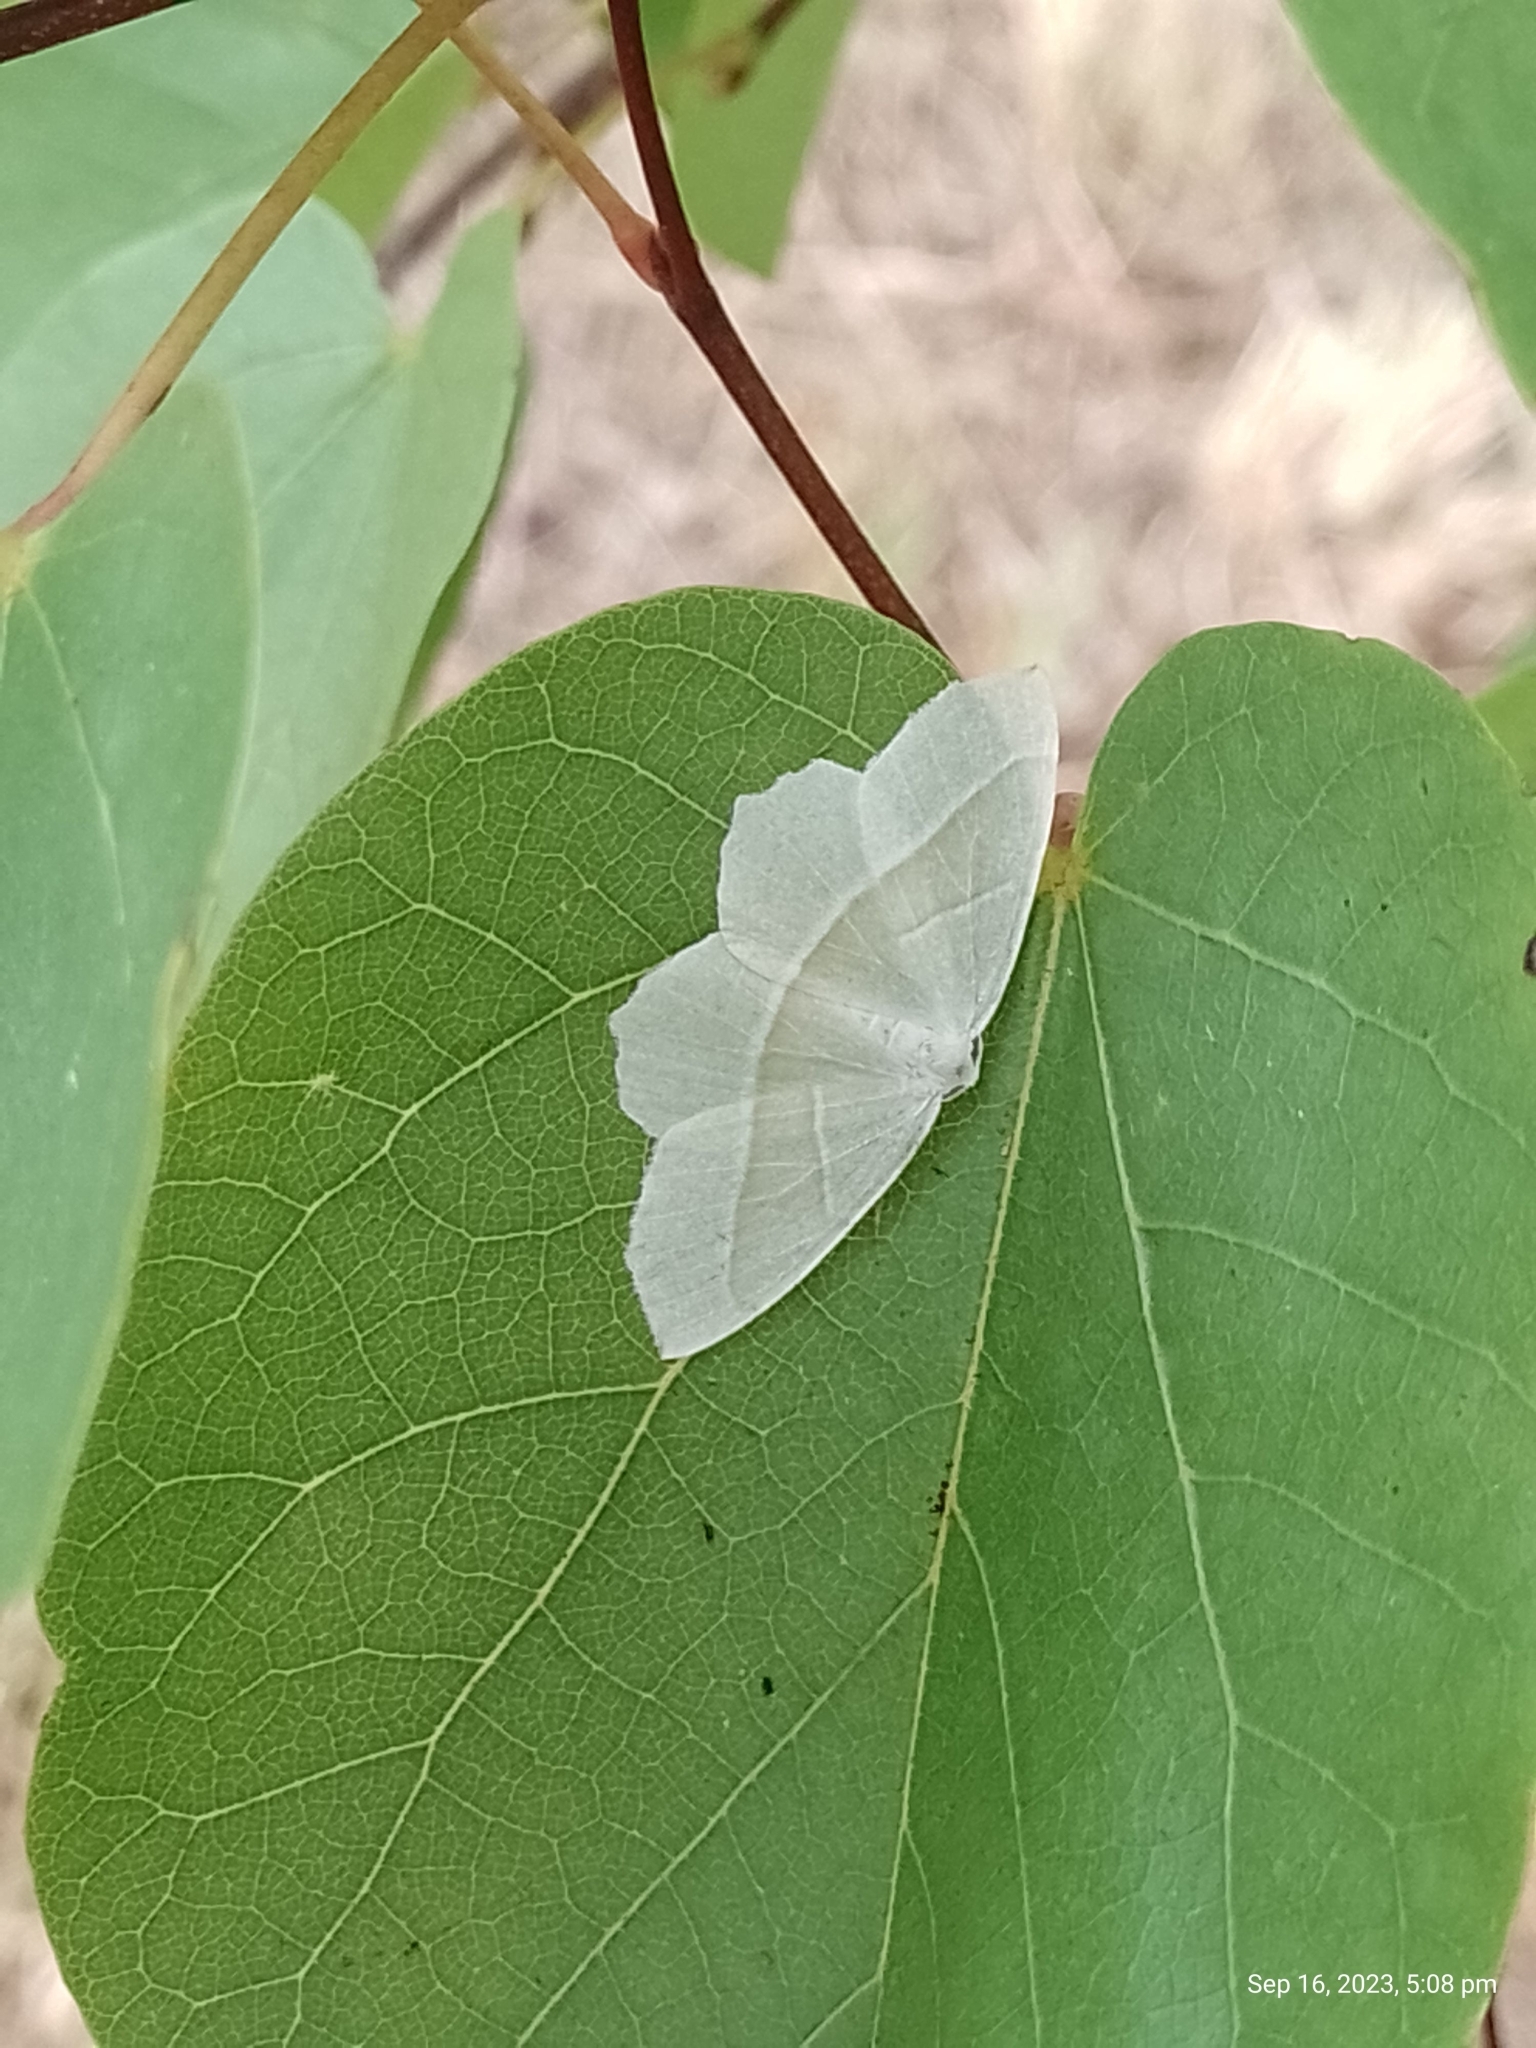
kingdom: Animalia
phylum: Arthropoda
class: Insecta
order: Lepidoptera
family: Geometridae
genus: Campaea
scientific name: Campaea margaritaria
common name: Light emerald
